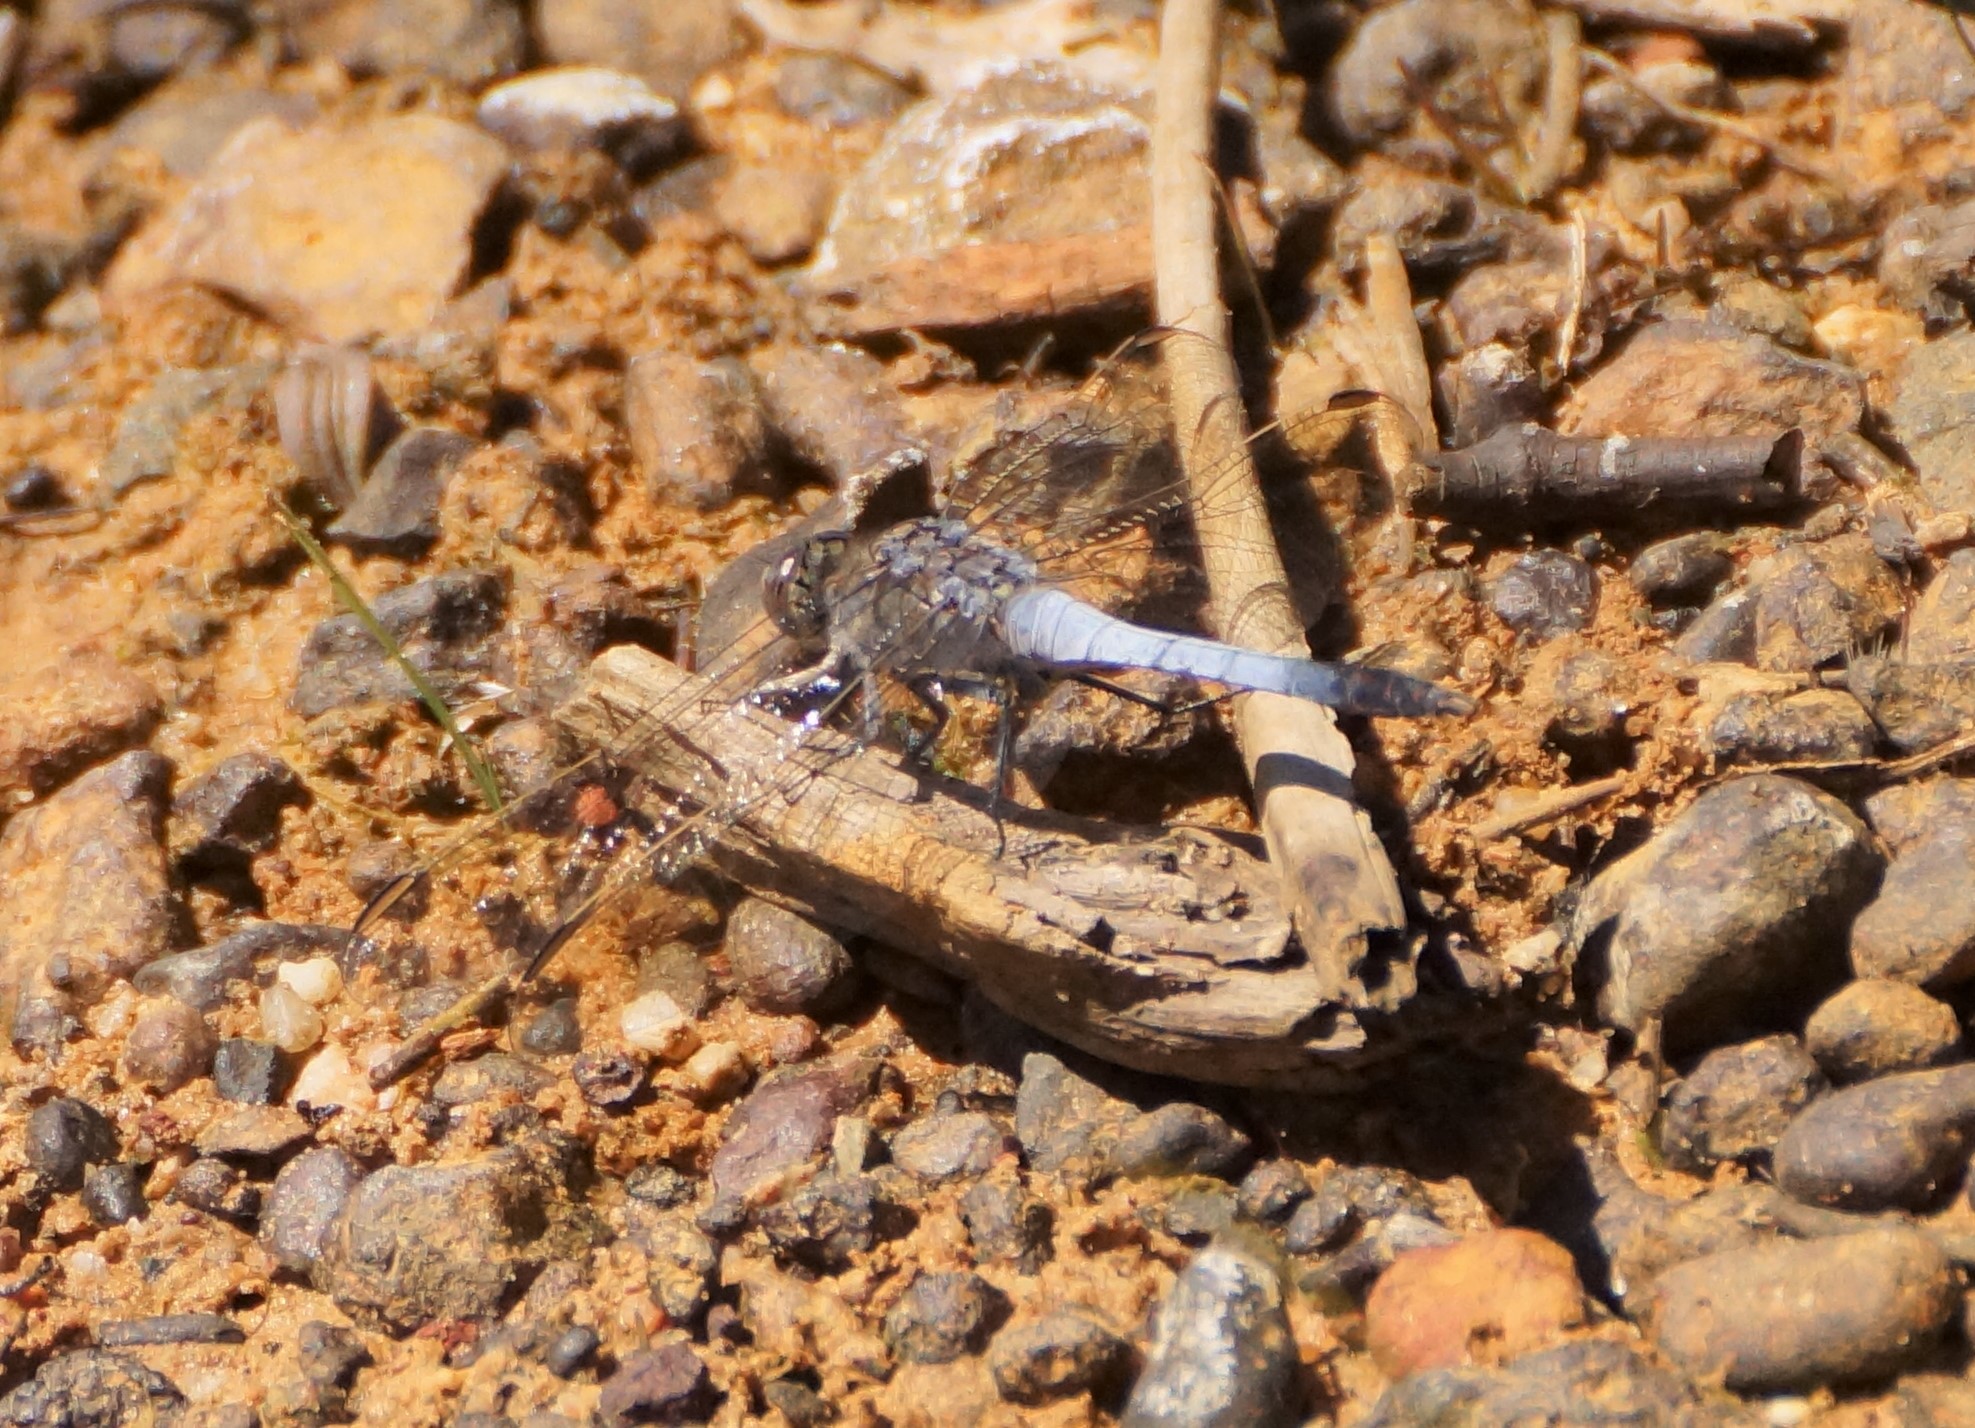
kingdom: Animalia
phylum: Arthropoda
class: Insecta
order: Odonata
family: Libellulidae
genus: Orthetrum
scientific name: Orthetrum caledonicum
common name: Blue skimmer
